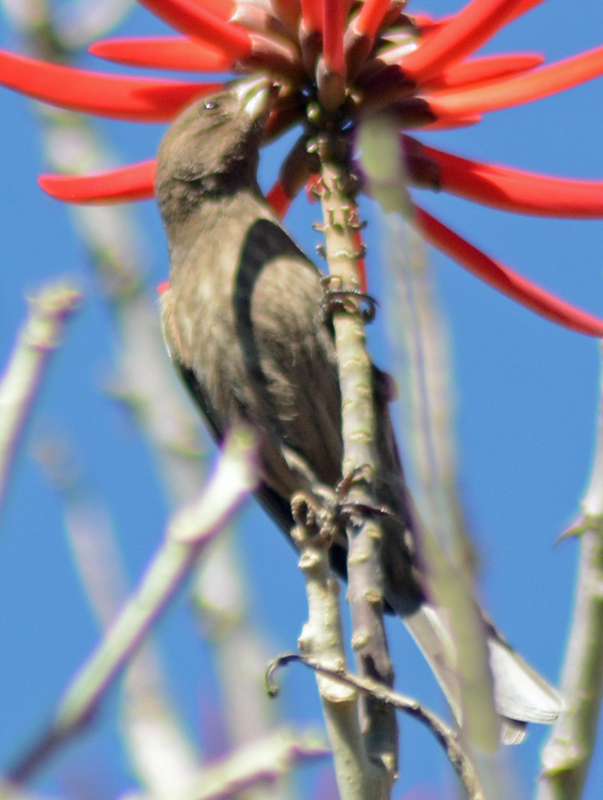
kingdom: Animalia
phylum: Chordata
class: Aves
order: Passeriformes
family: Fringillidae
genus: Haemorhous
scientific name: Haemorhous mexicanus
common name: House finch
